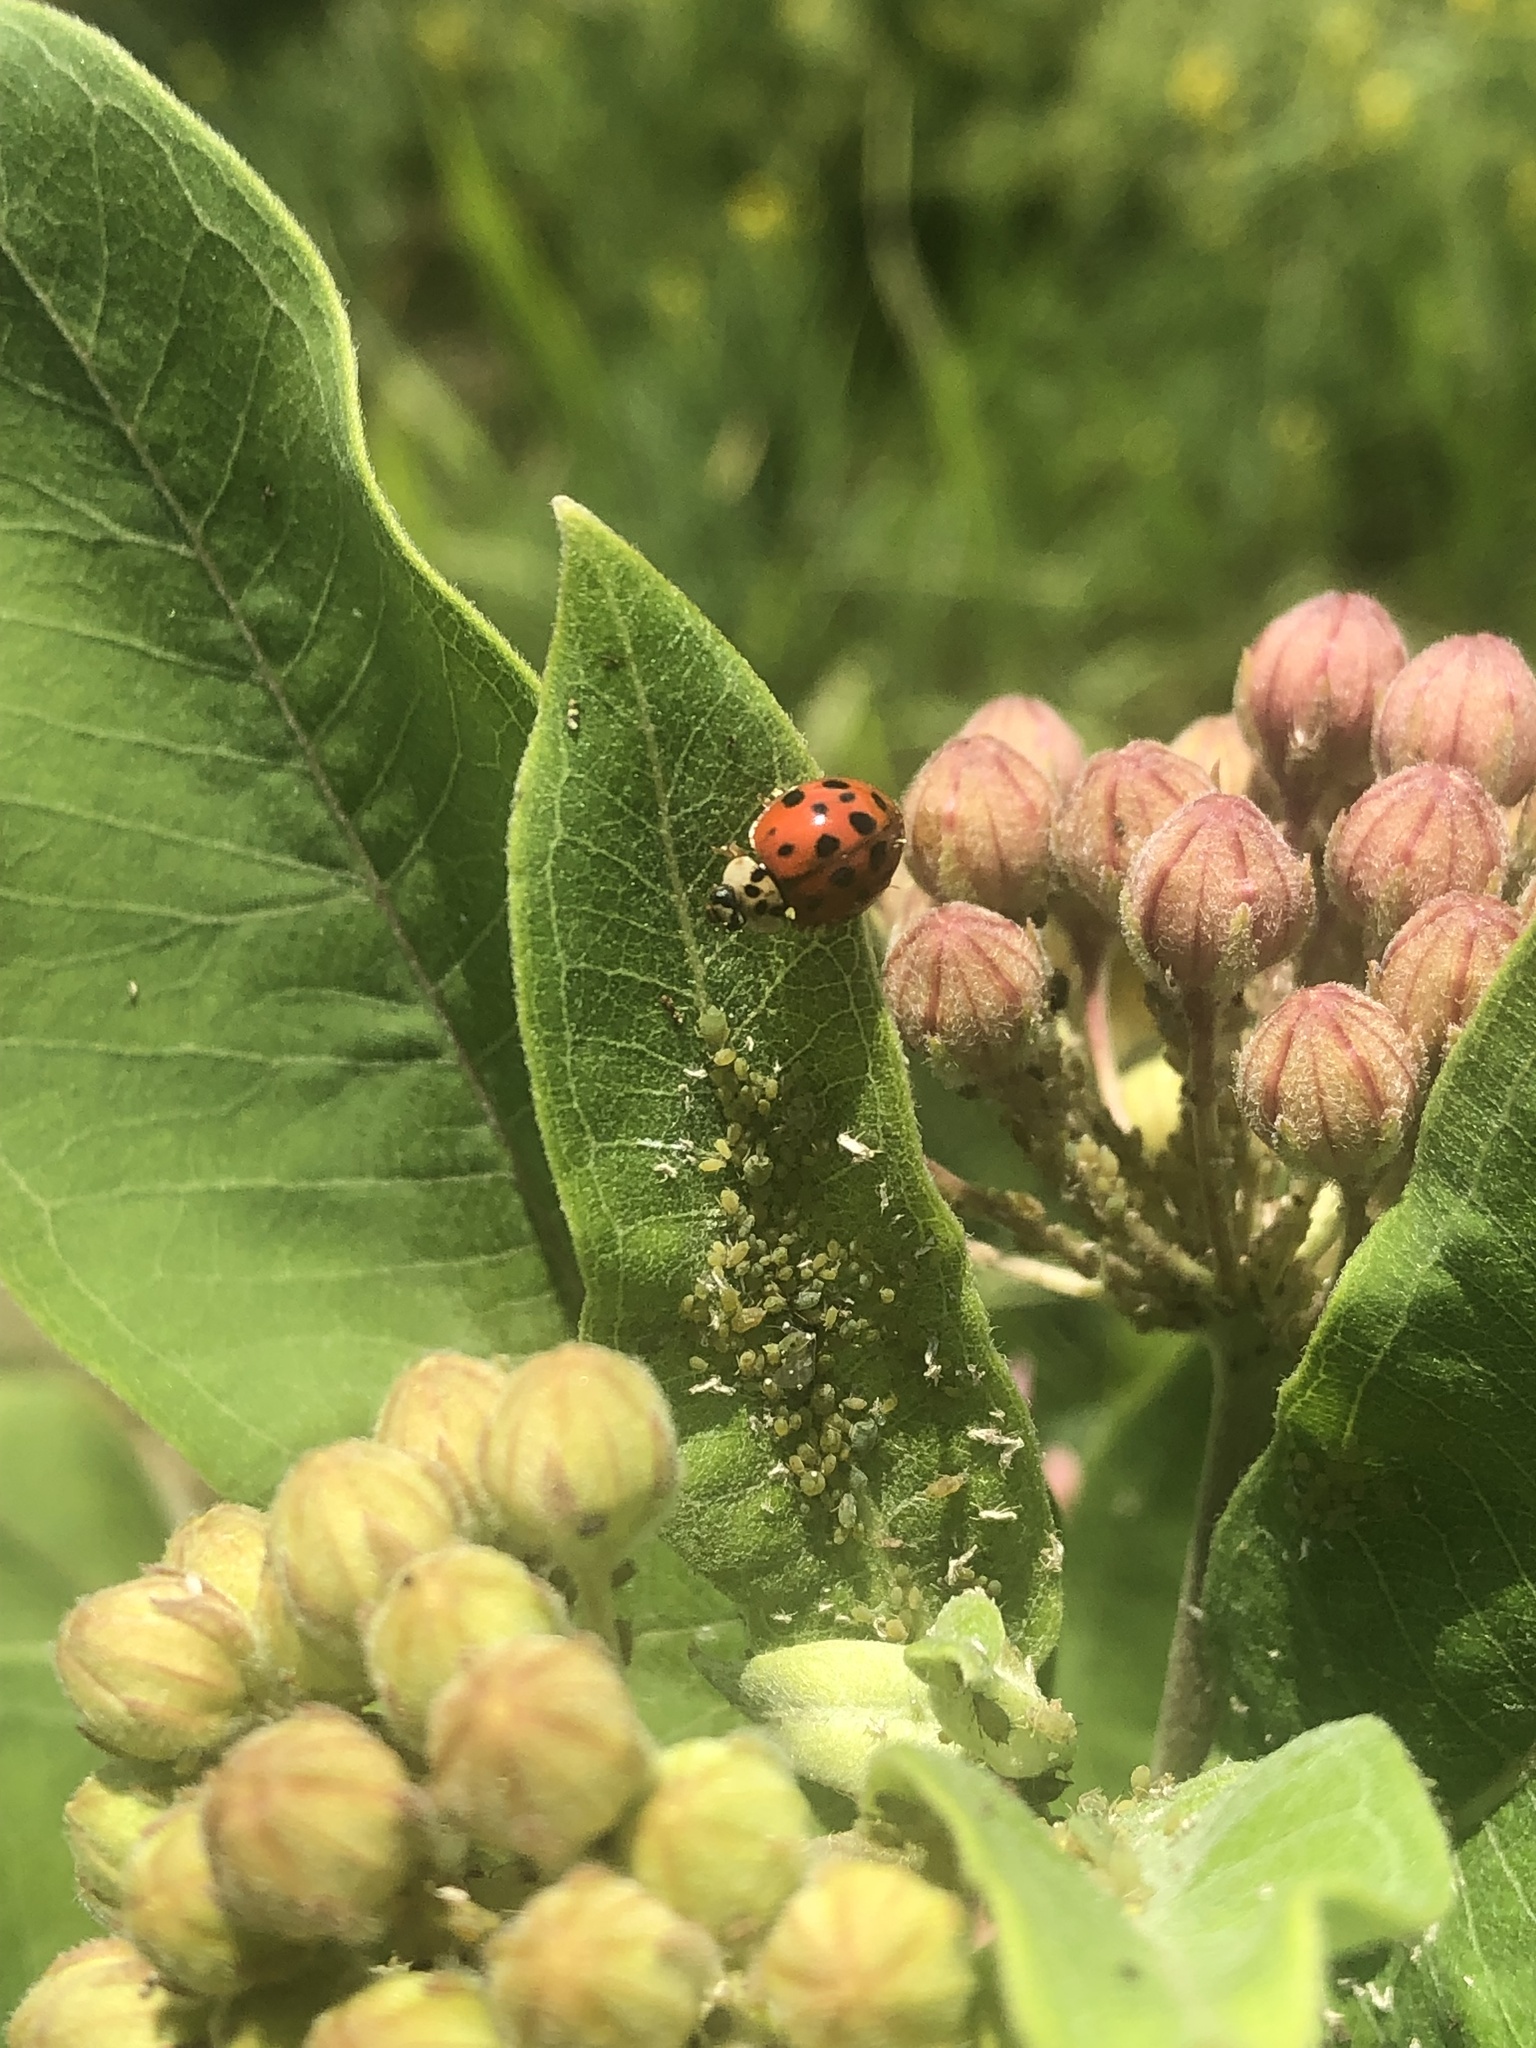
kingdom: Animalia
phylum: Arthropoda
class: Insecta
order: Coleoptera
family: Coccinellidae
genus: Harmonia
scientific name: Harmonia axyridis
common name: Harlequin ladybird
